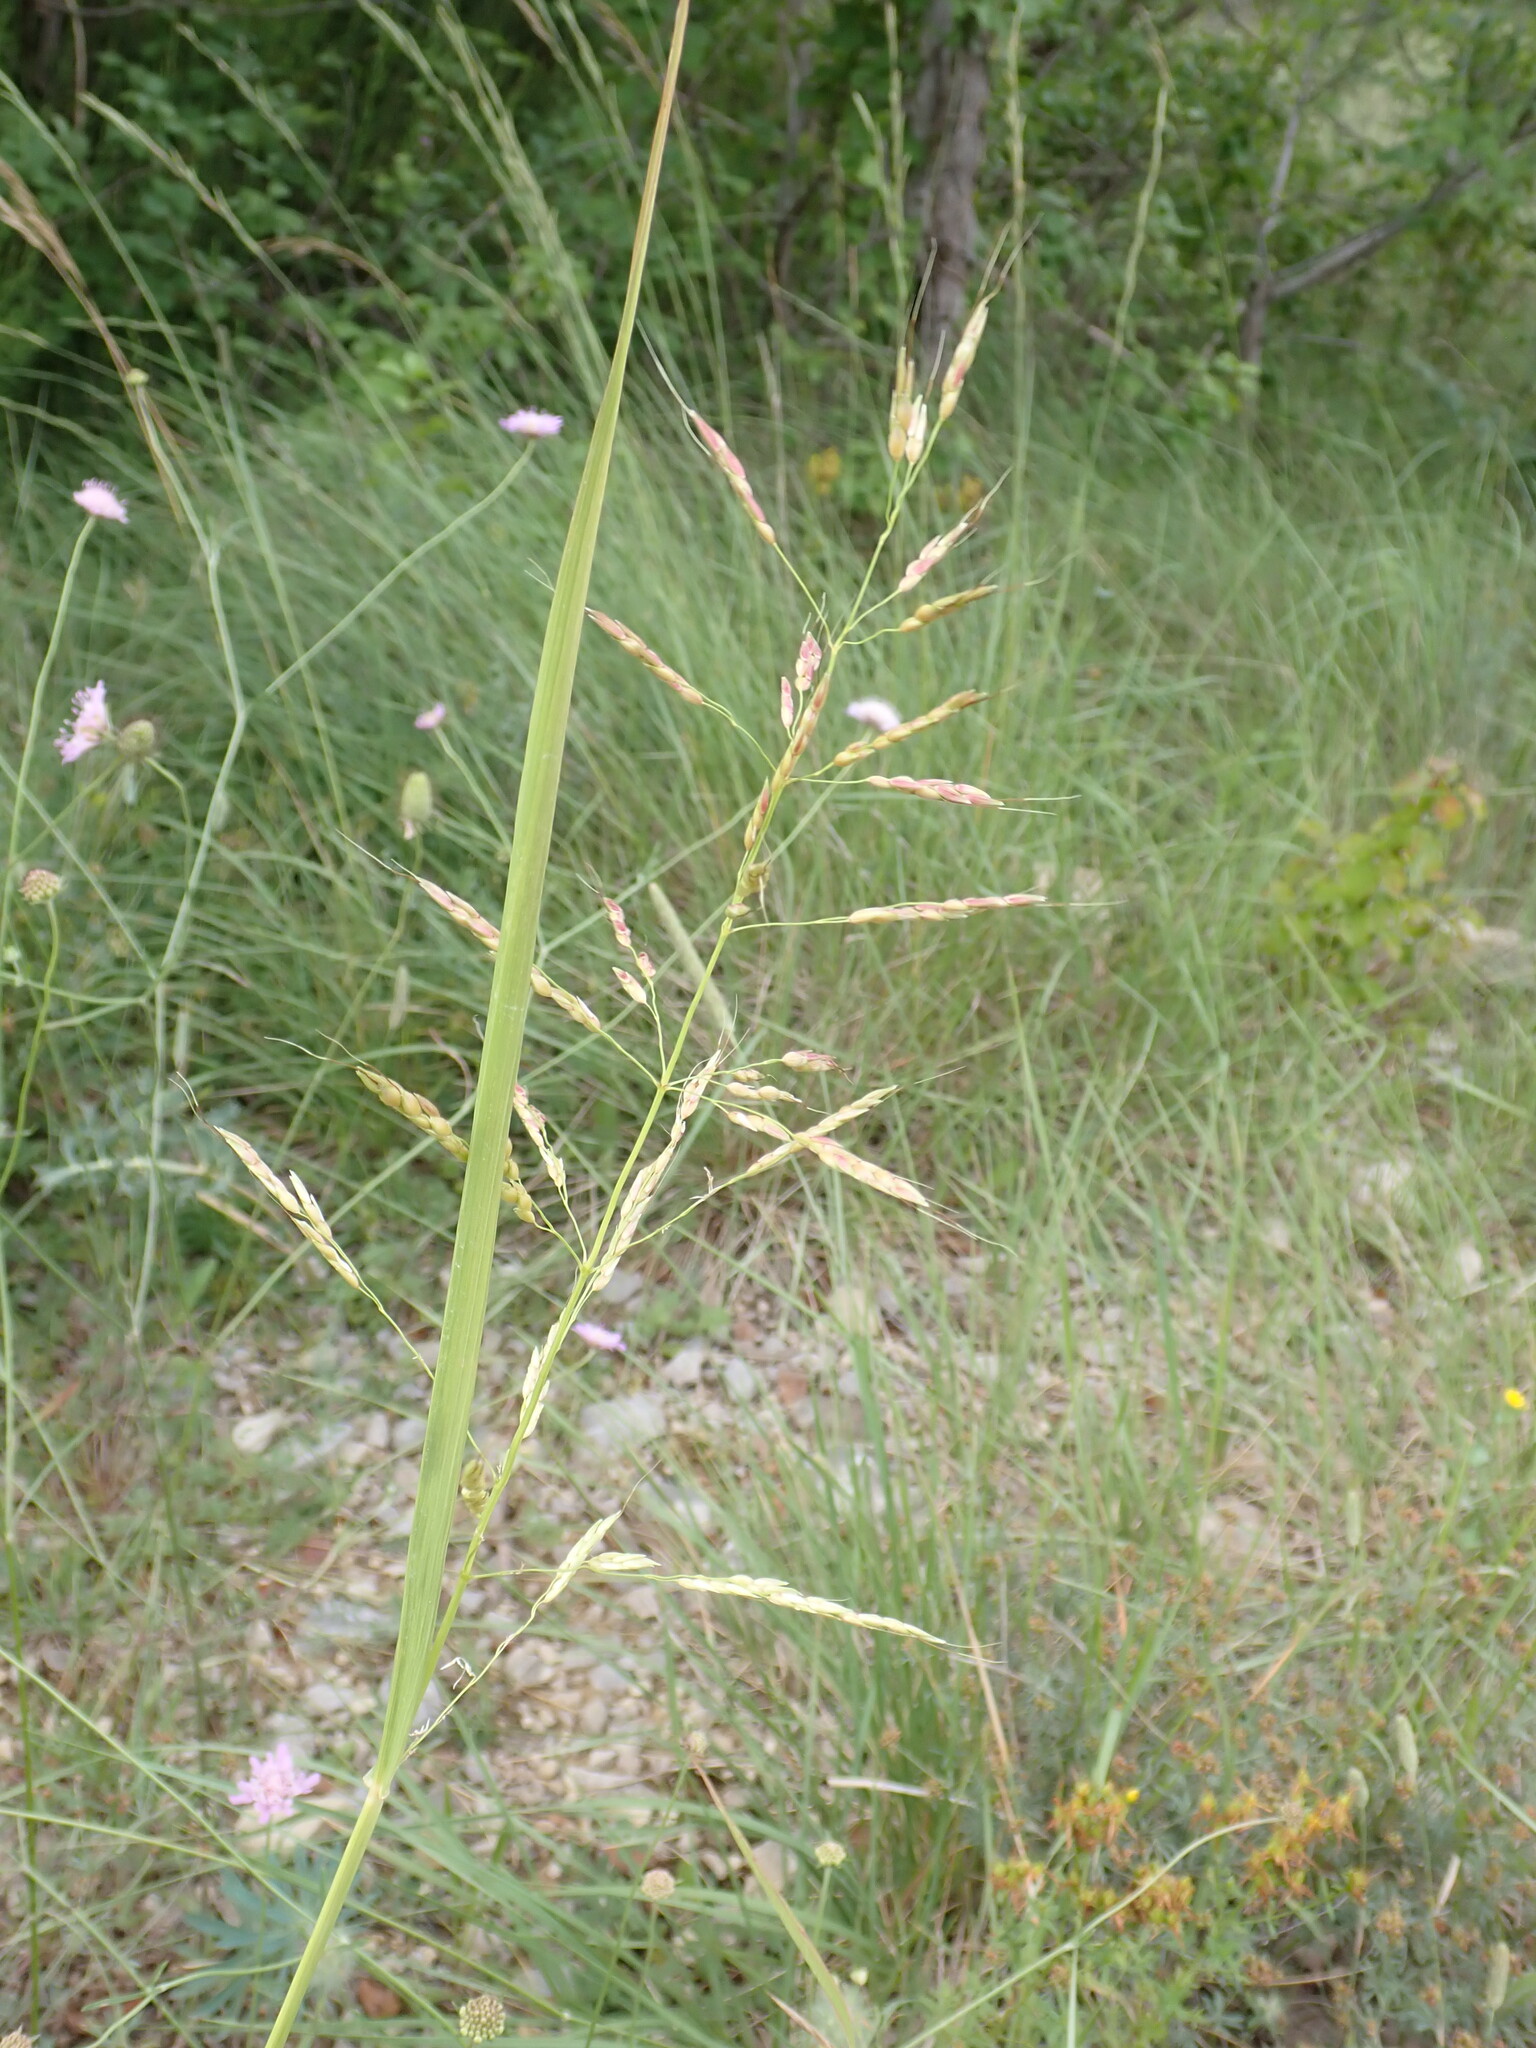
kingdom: Plantae
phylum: Tracheophyta
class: Liliopsida
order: Poales
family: Poaceae
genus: Sorghum
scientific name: Sorghum halepense
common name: Johnson-grass
